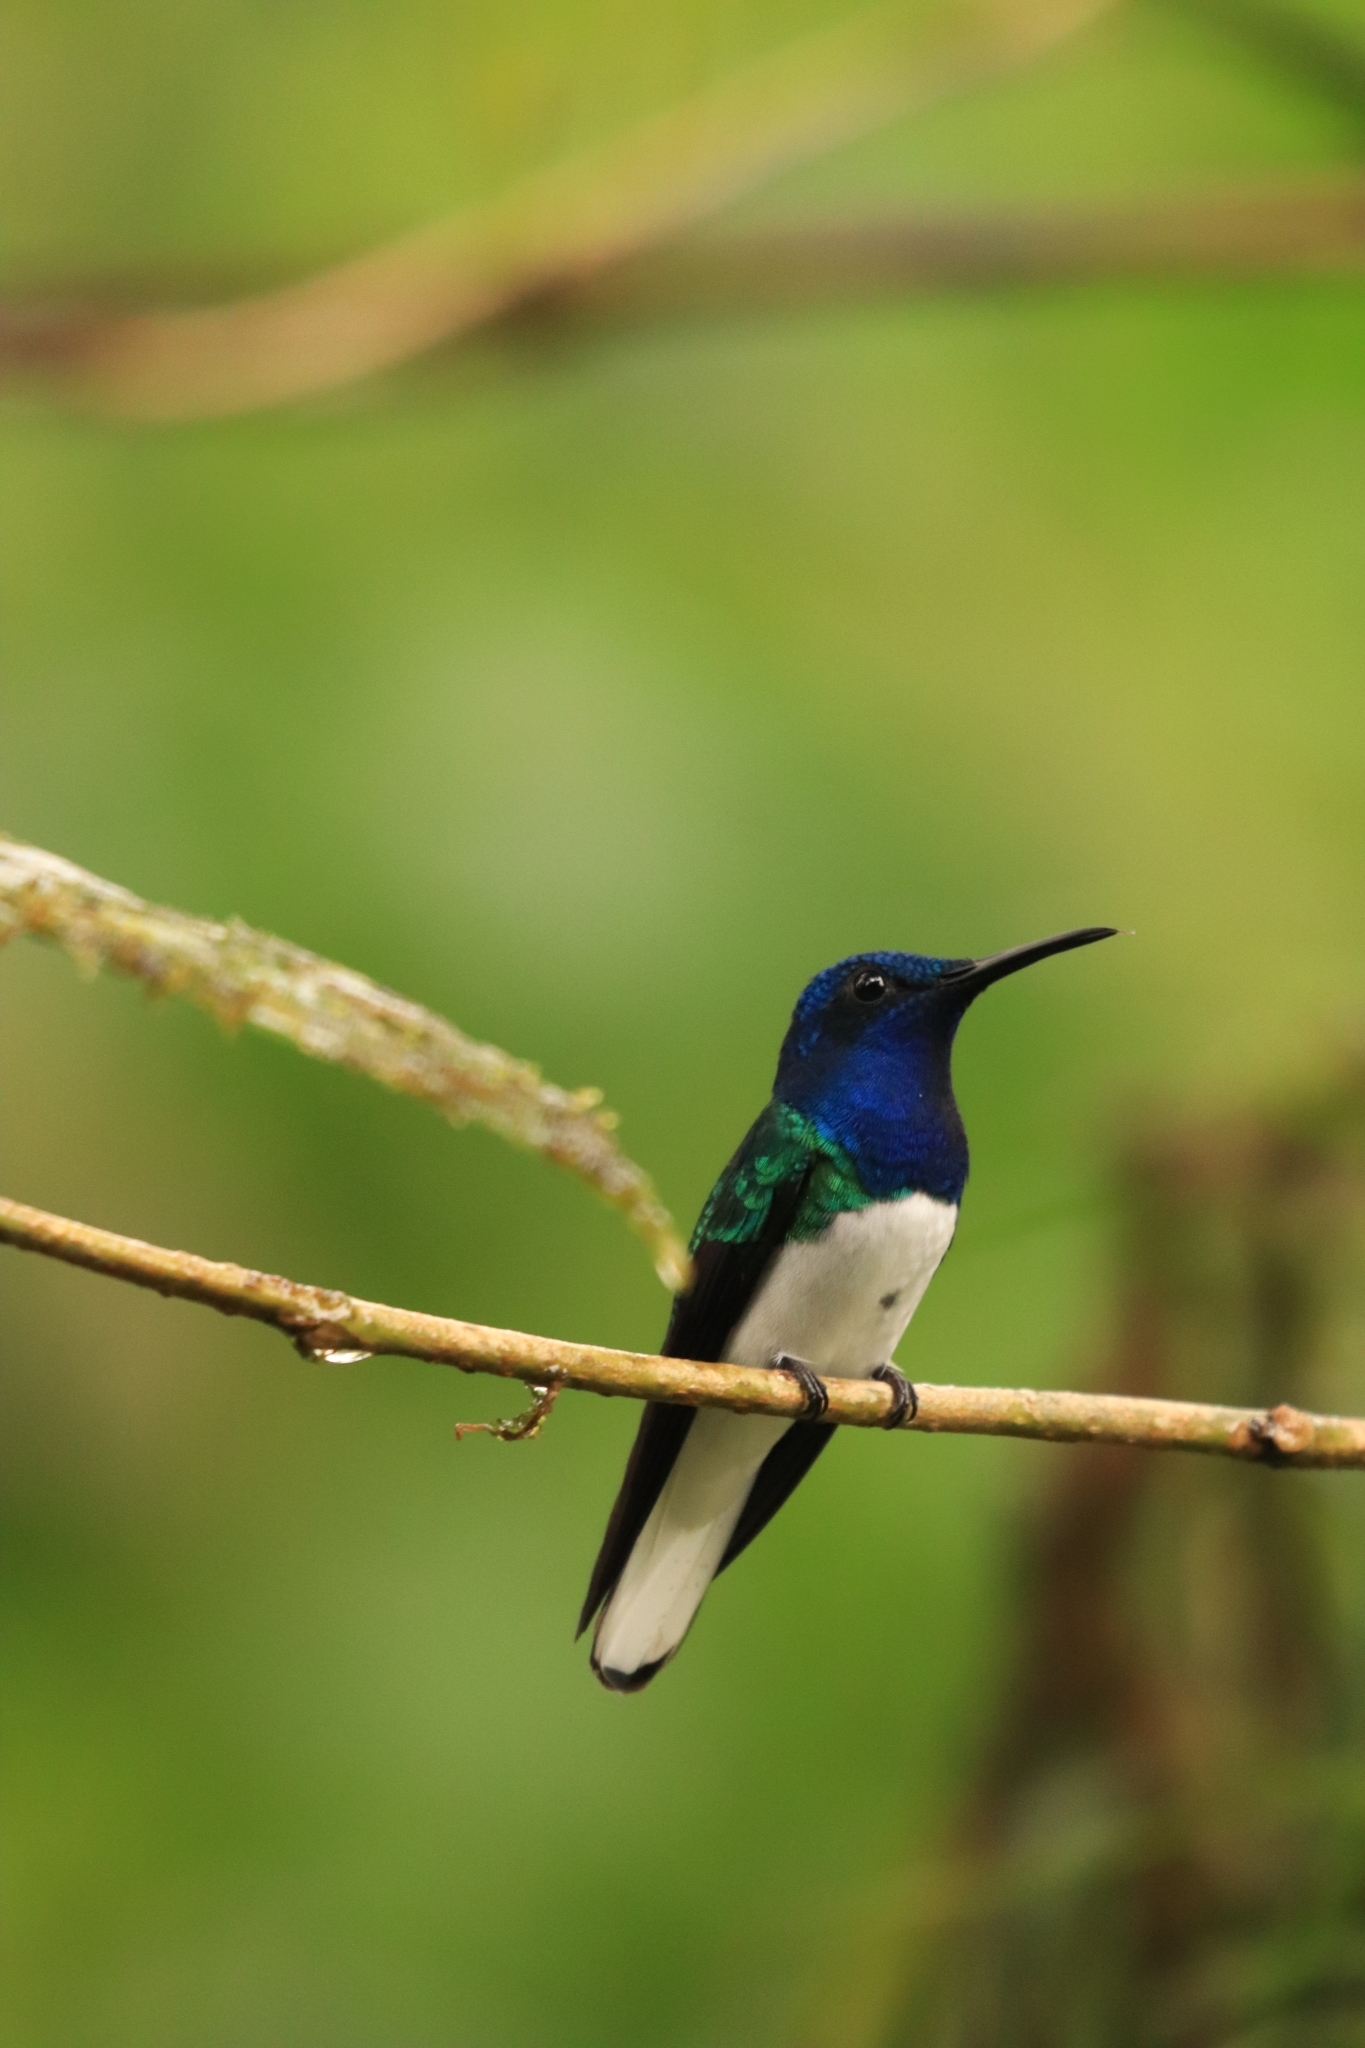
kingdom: Animalia
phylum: Chordata
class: Aves
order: Apodiformes
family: Trochilidae
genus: Florisuga
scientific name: Florisuga mellivora
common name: White-necked jacobin
